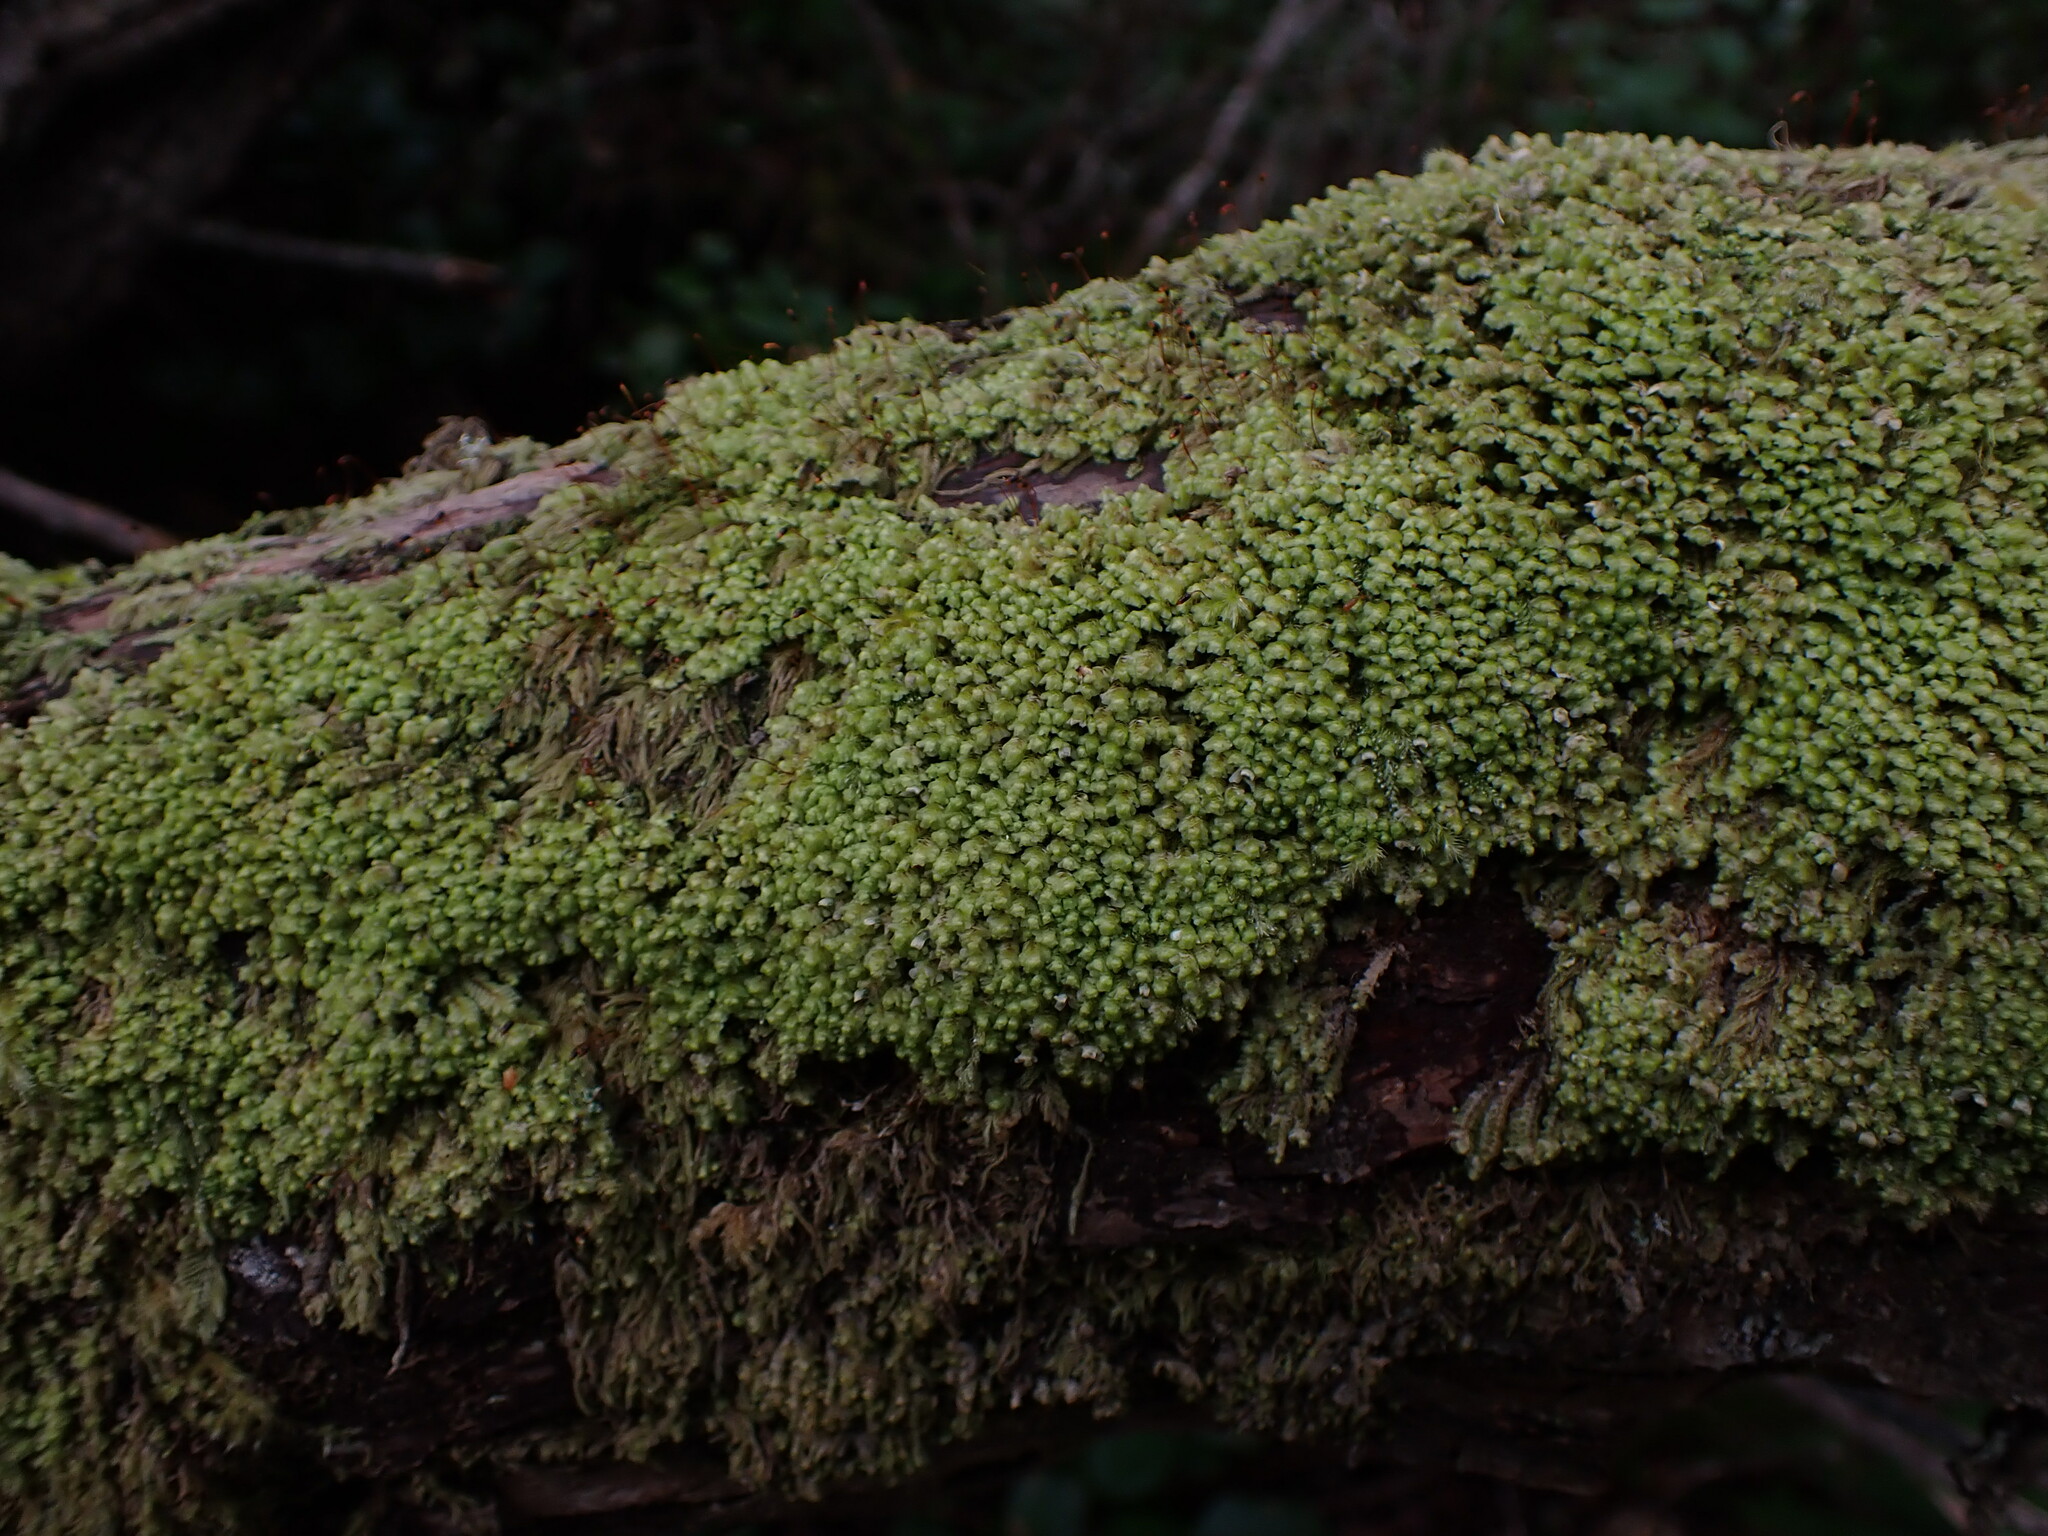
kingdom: Plantae
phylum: Marchantiophyta
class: Jungermanniopsida
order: Jungermanniales
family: Scapaniaceae
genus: Scapania
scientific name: Scapania bolanderi
